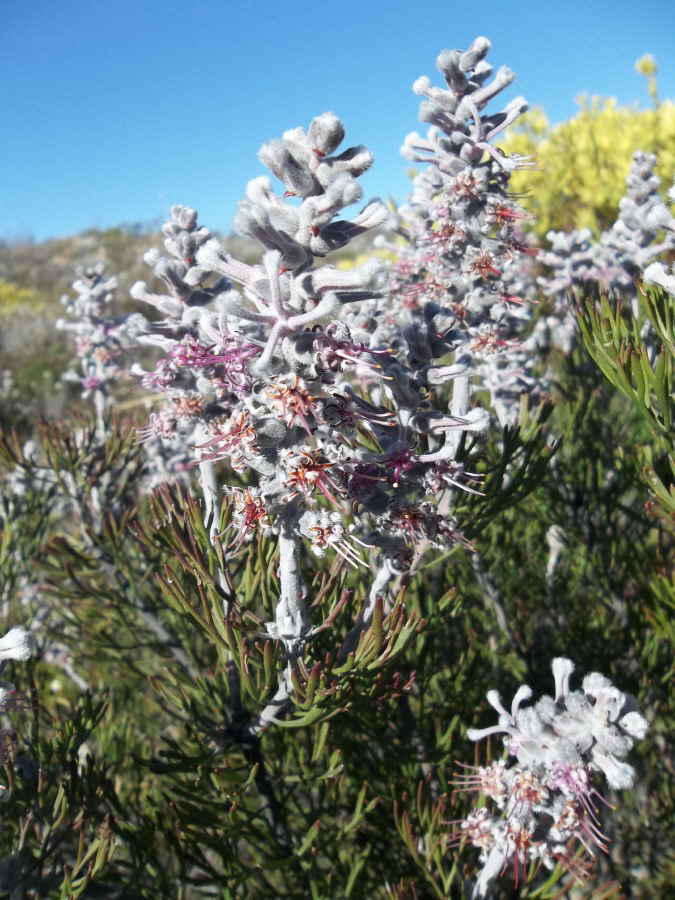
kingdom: Plantae
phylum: Tracheophyta
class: Magnoliopsida
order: Proteales
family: Proteaceae
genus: Paranomus
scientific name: Paranomus dispersus
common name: Long-head sceptre
